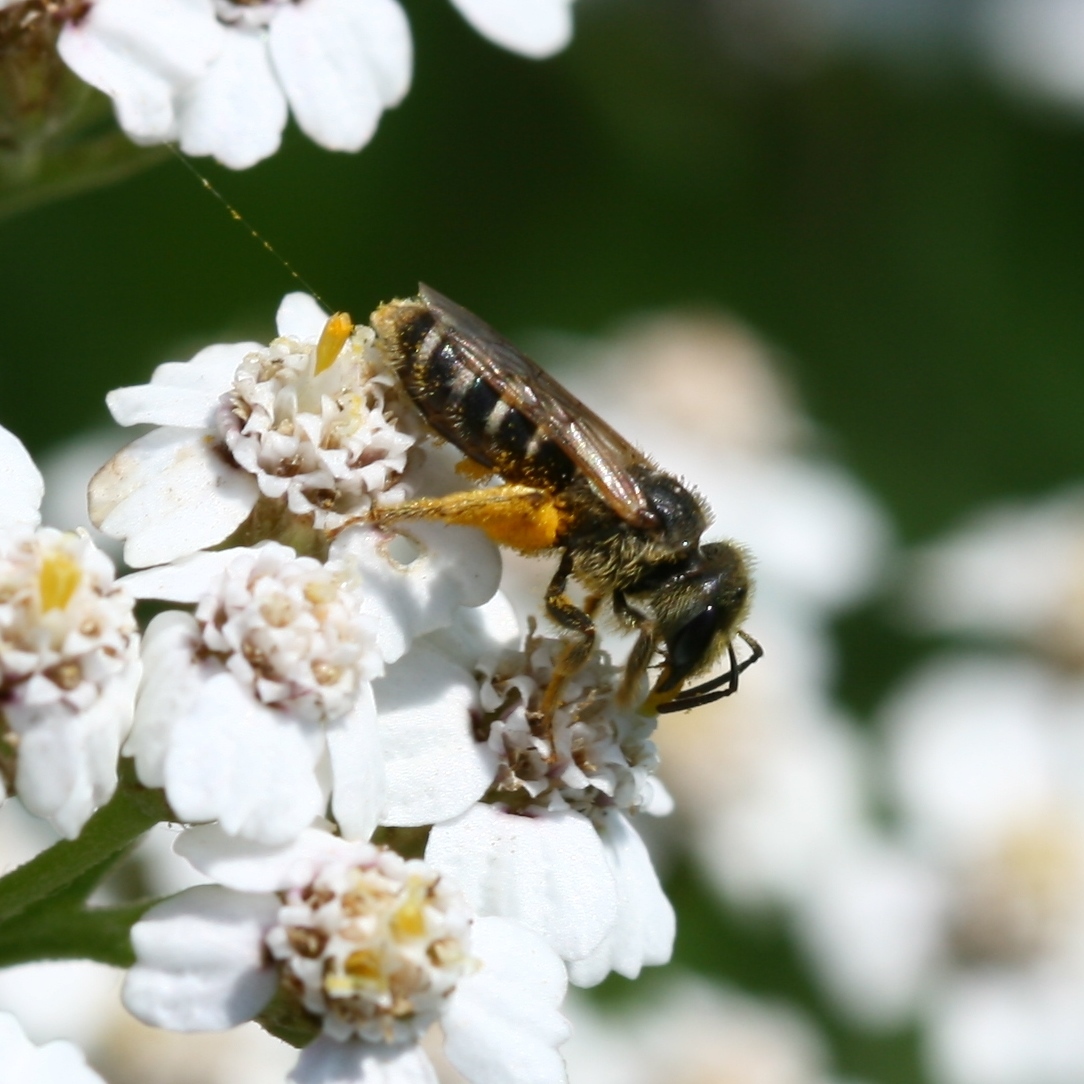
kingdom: Animalia
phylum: Arthropoda
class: Insecta
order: Hymenoptera
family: Halictidae
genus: Halictus
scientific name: Halictus ligatus
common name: Ligated furrow bee
